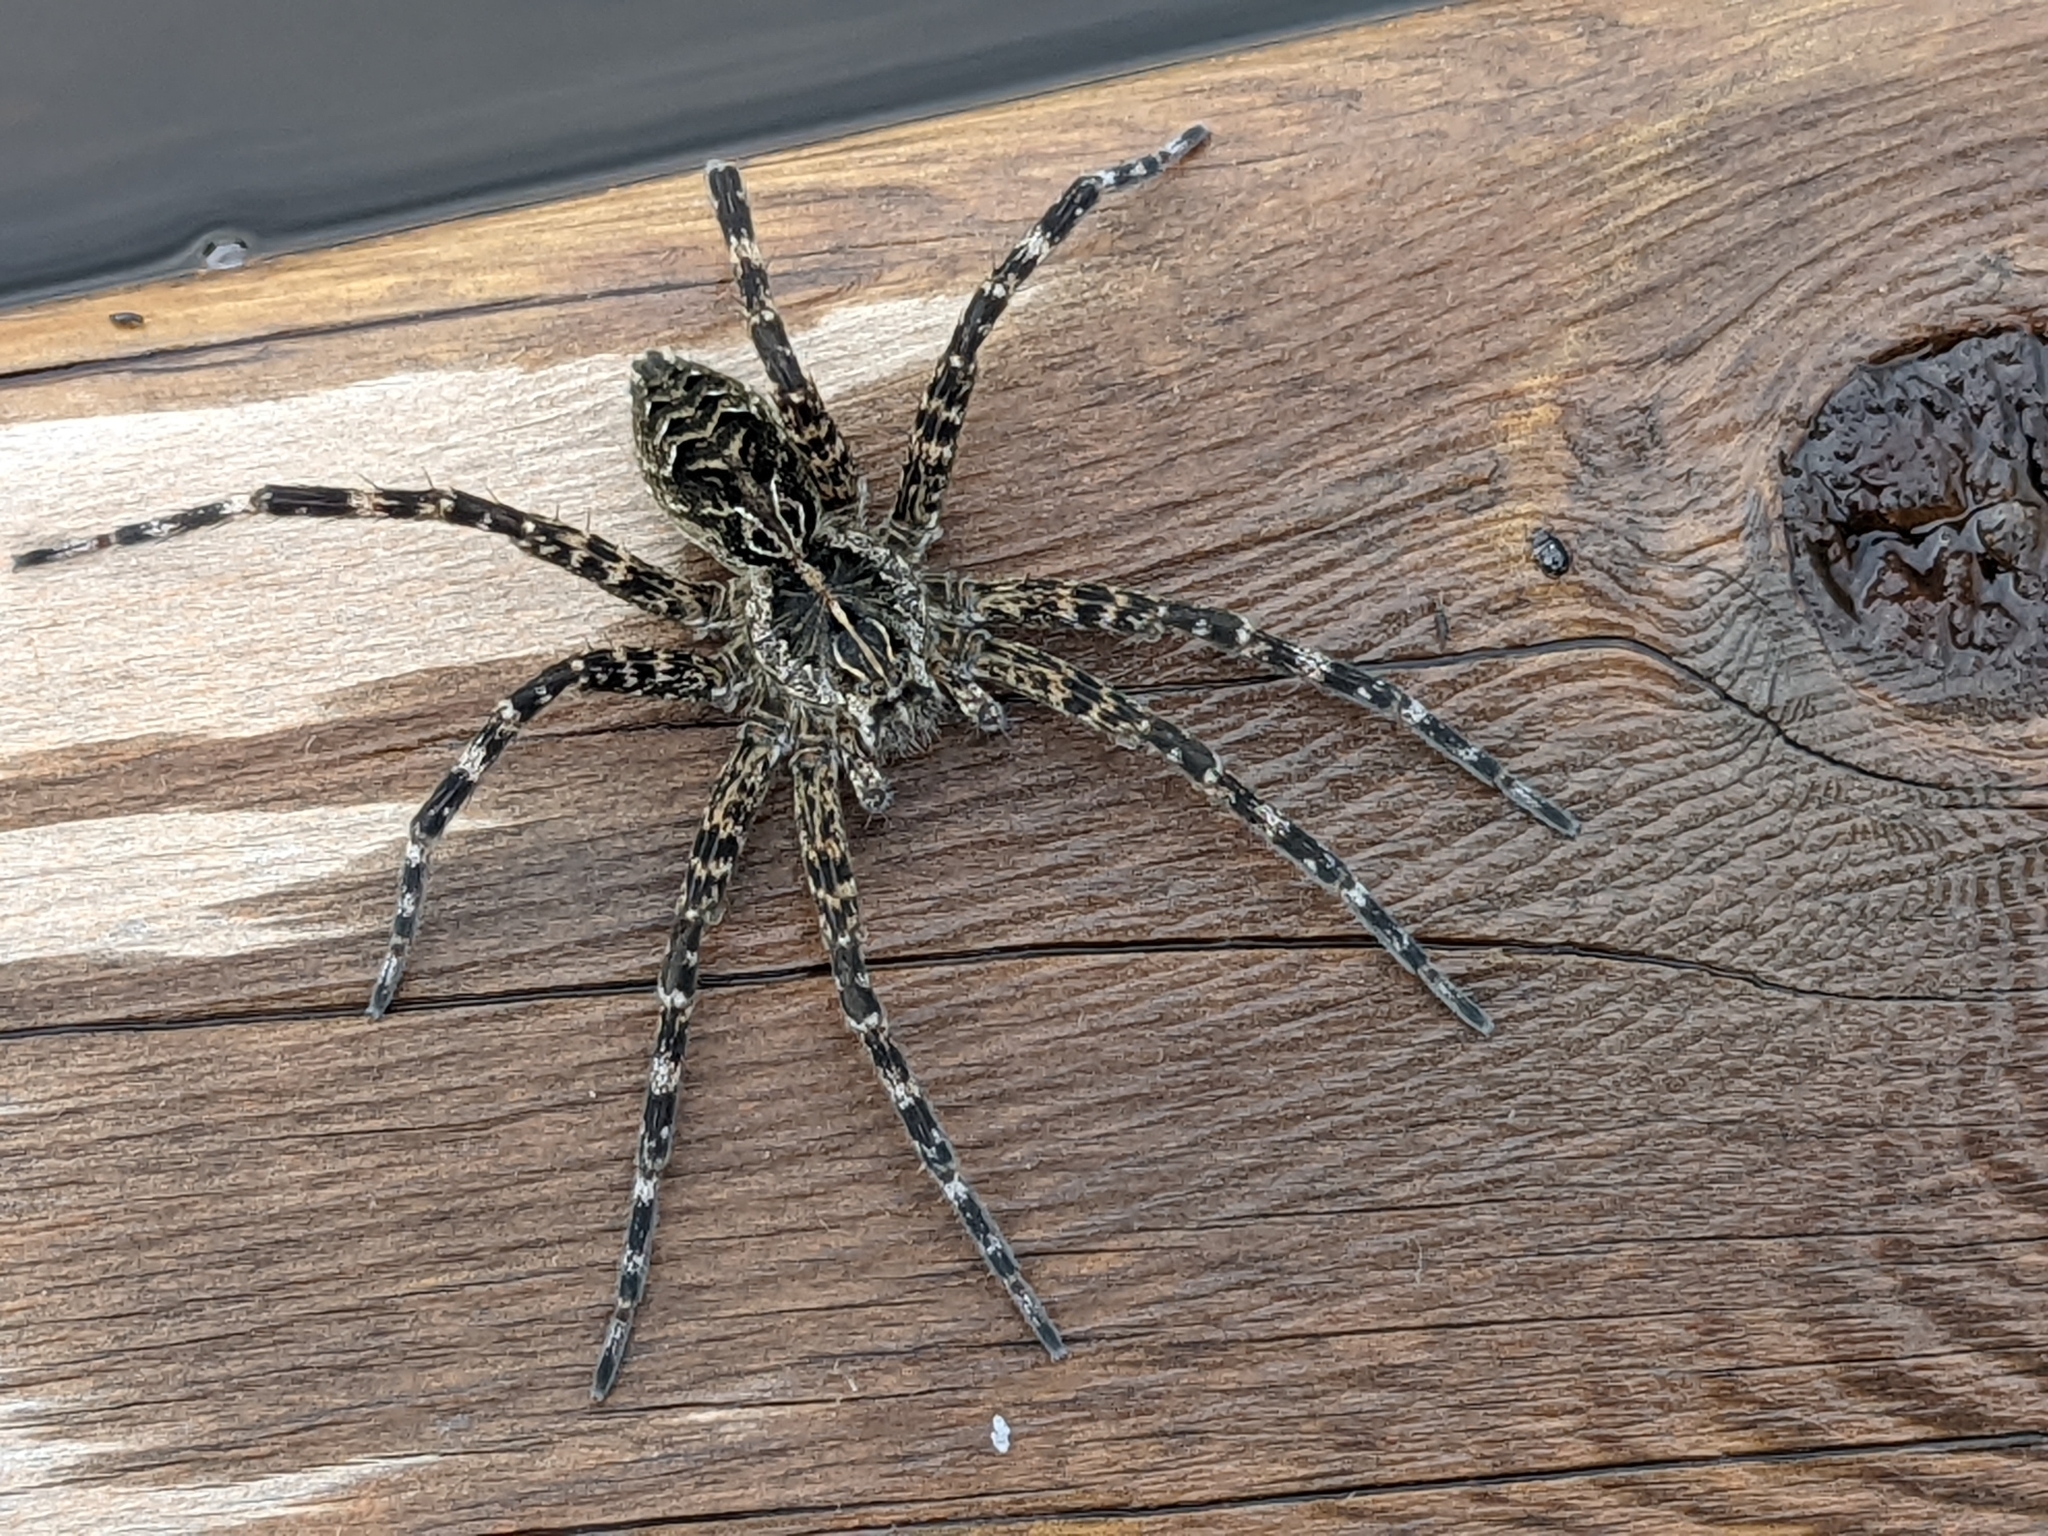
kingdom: Animalia
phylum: Arthropoda
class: Arachnida
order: Araneae
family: Pisauridae
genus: Dolomedes
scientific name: Dolomedes scriptus
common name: Striped fishing spider
